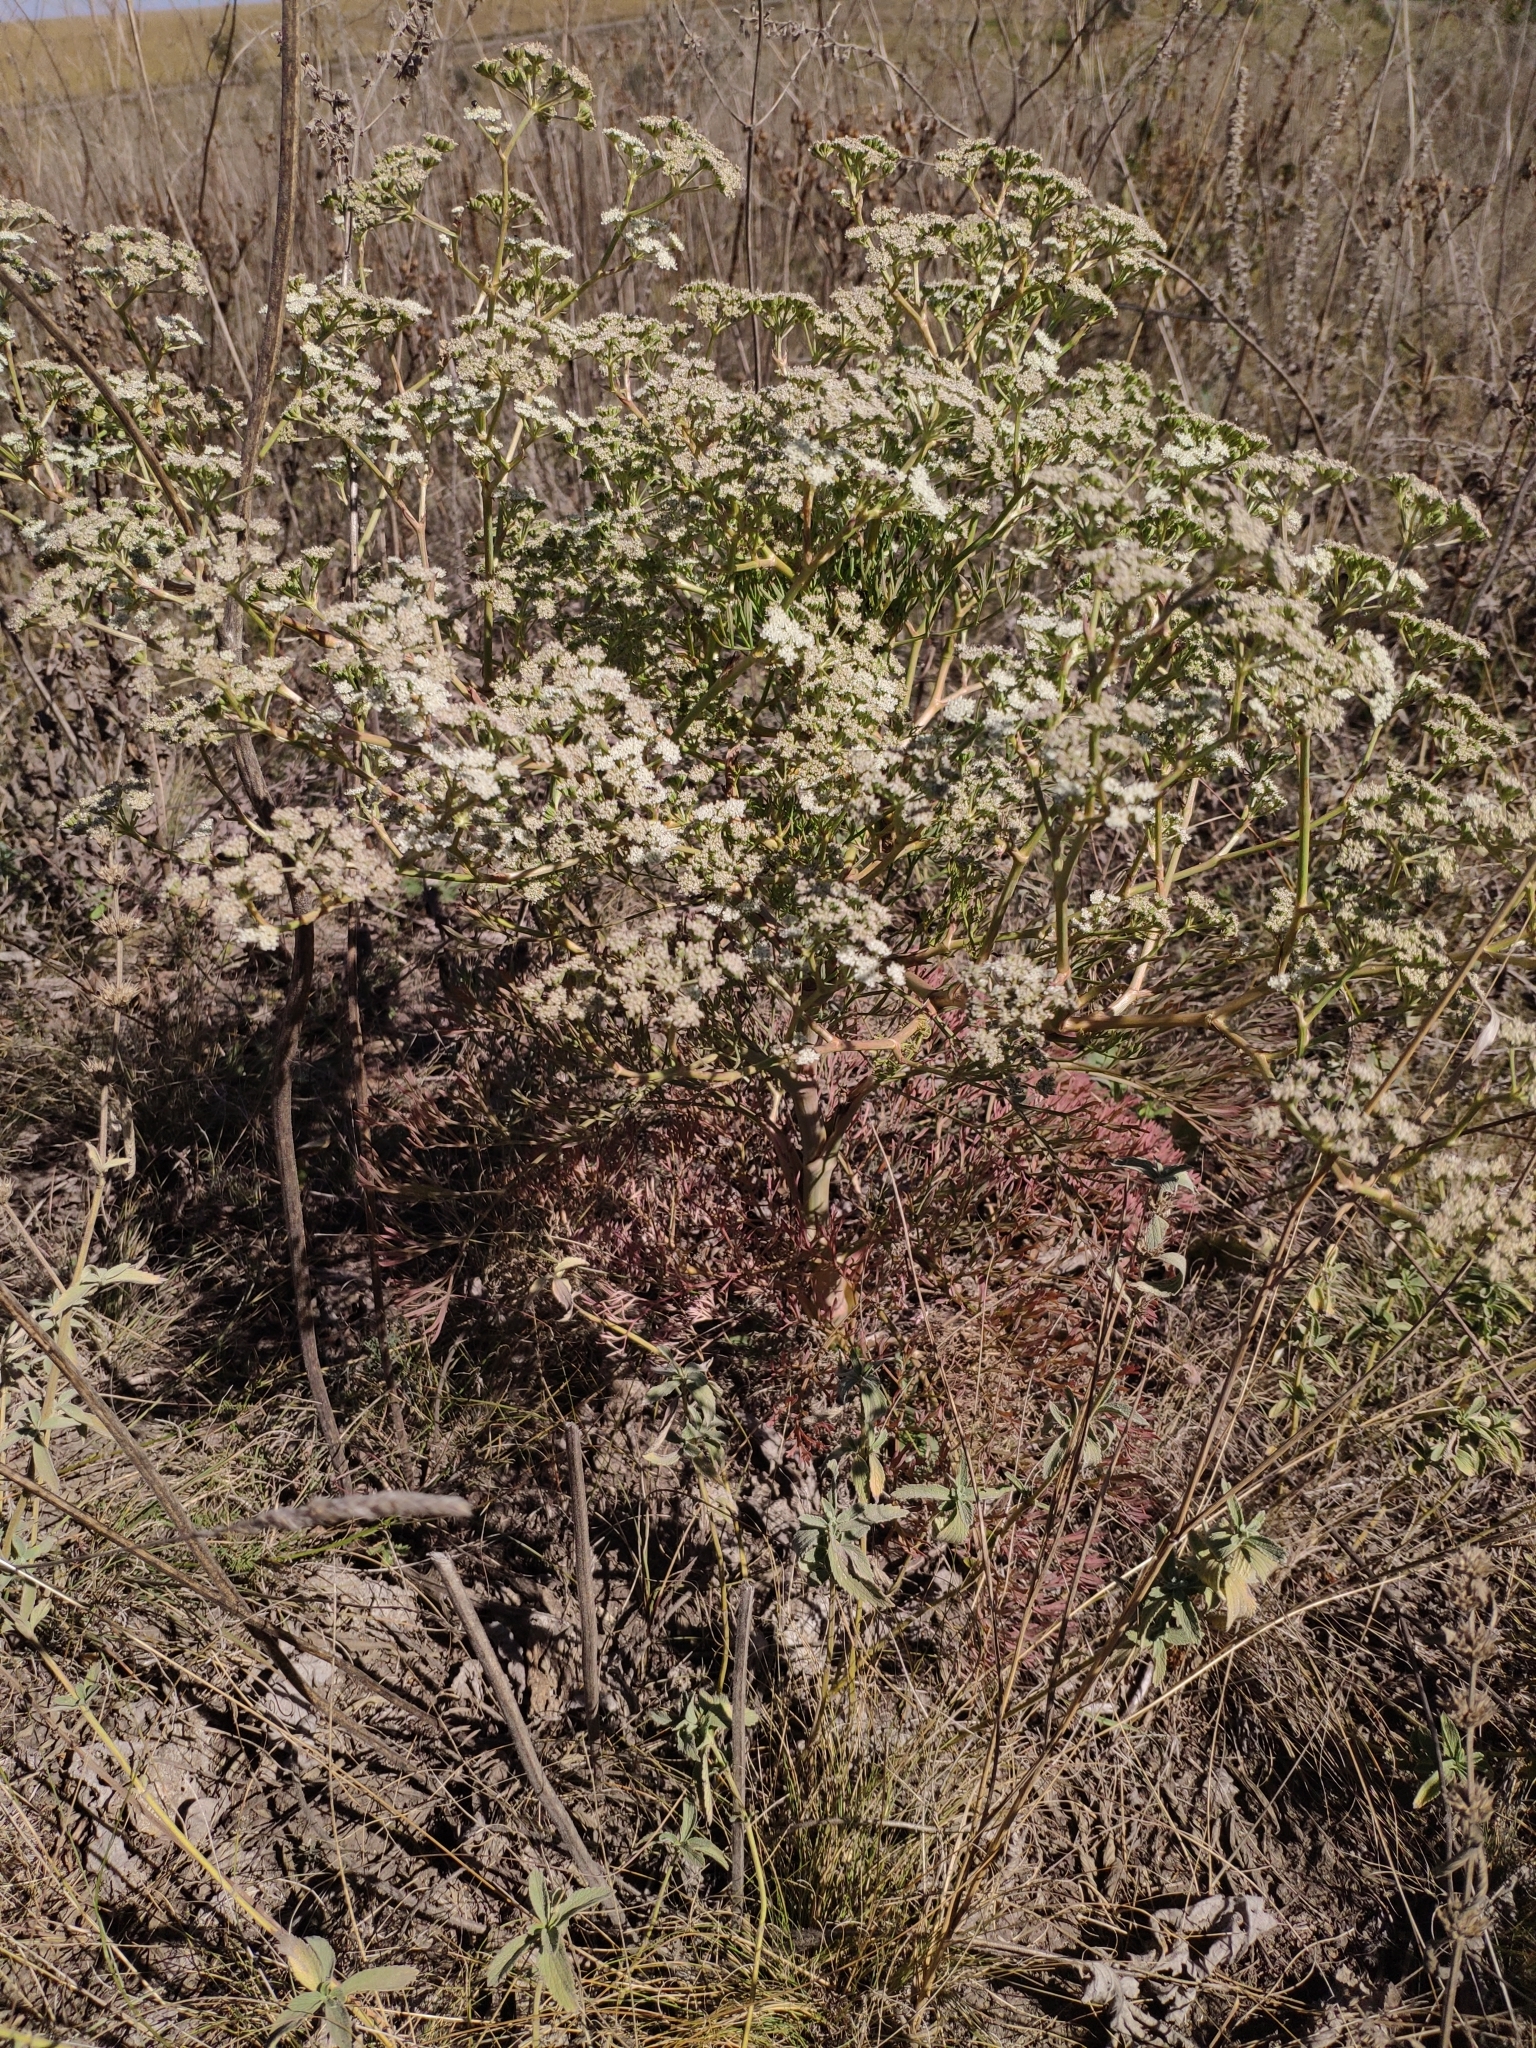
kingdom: Plantae
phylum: Tracheophyta
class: Magnoliopsida
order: Apiales
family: Apiaceae
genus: Seseli
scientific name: Seseli arenarium
